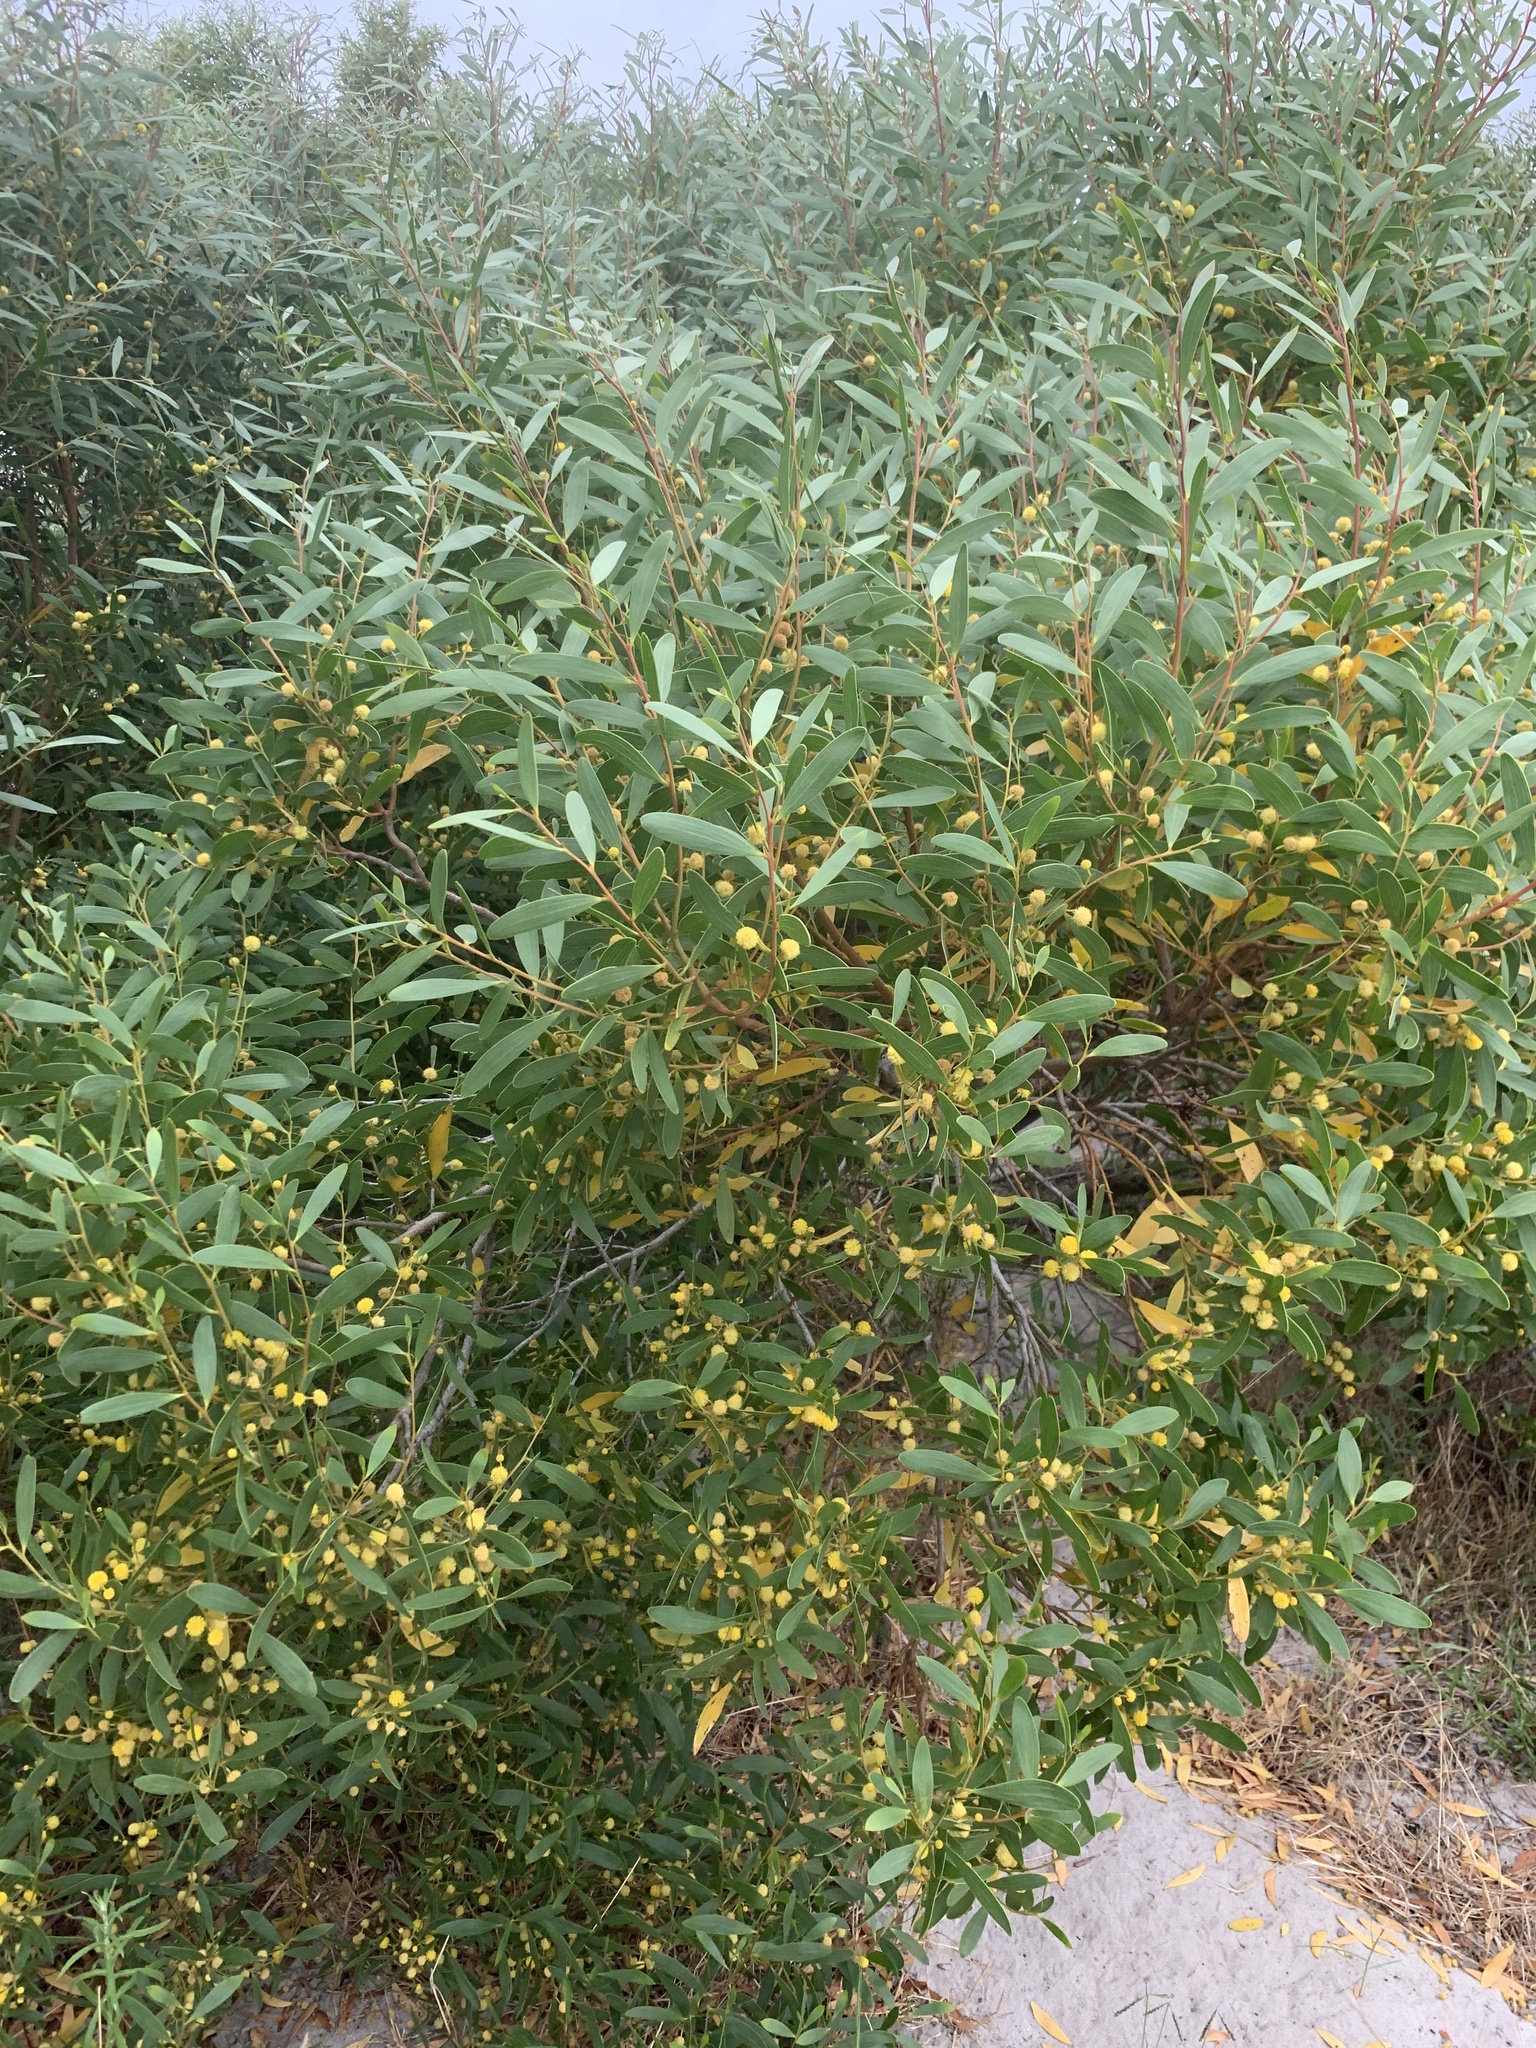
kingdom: Plantae
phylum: Tracheophyta
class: Magnoliopsida
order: Fabales
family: Fabaceae
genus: Acacia
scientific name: Acacia cyclops
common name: Coastal wattle
